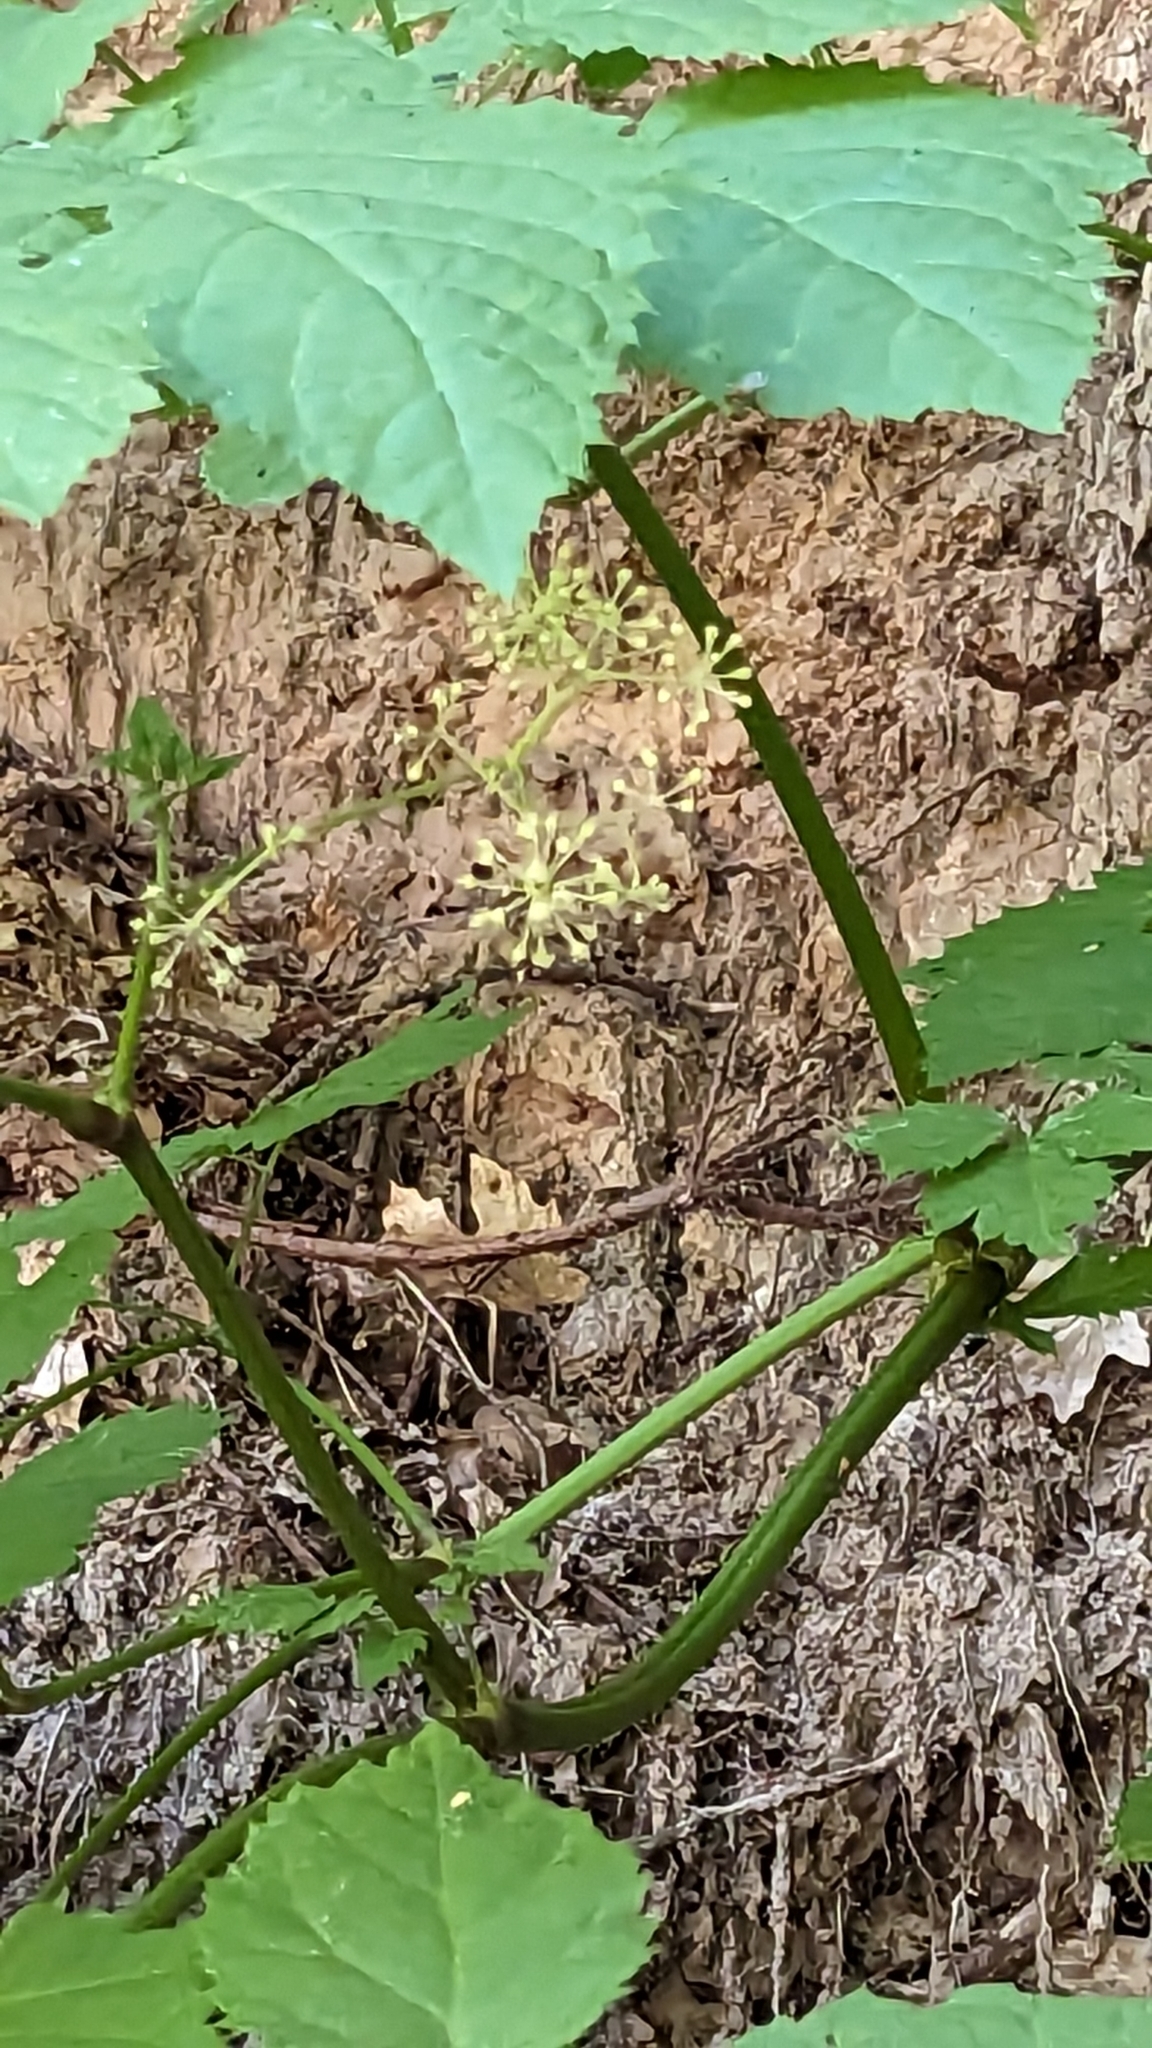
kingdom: Plantae
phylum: Tracheophyta
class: Magnoliopsida
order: Apiales
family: Araliaceae
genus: Aralia
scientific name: Aralia bicrenata
